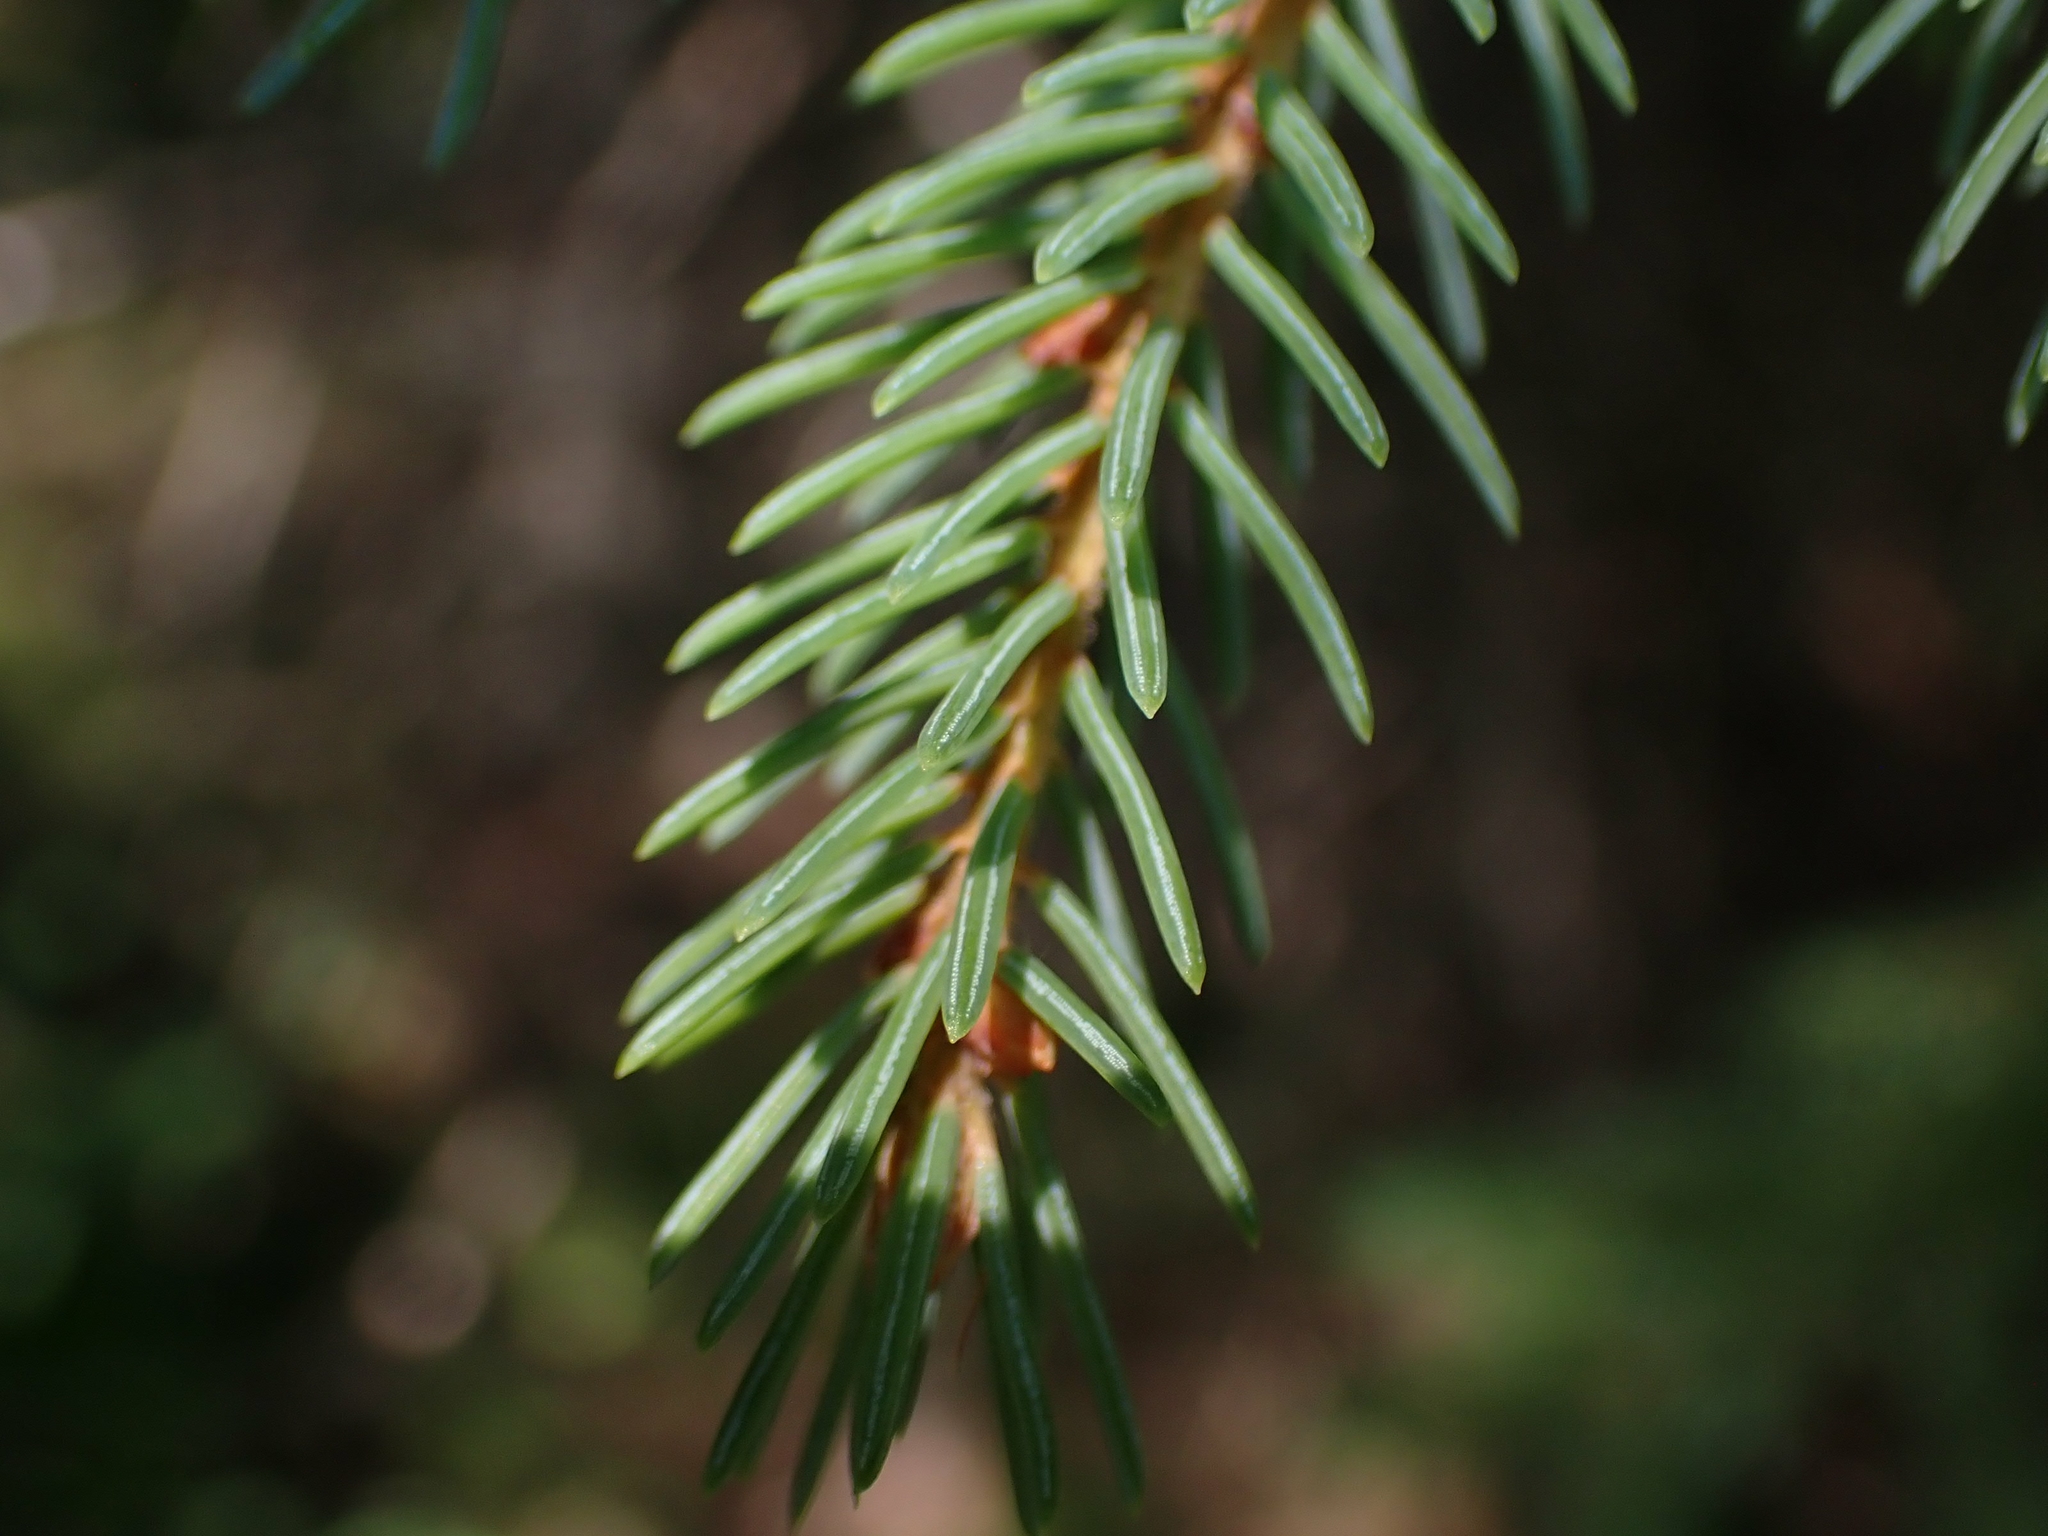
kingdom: Plantae
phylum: Tracheophyta
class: Pinopsida
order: Pinales
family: Pinaceae
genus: Picea
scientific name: Picea mariana
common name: Black spruce
